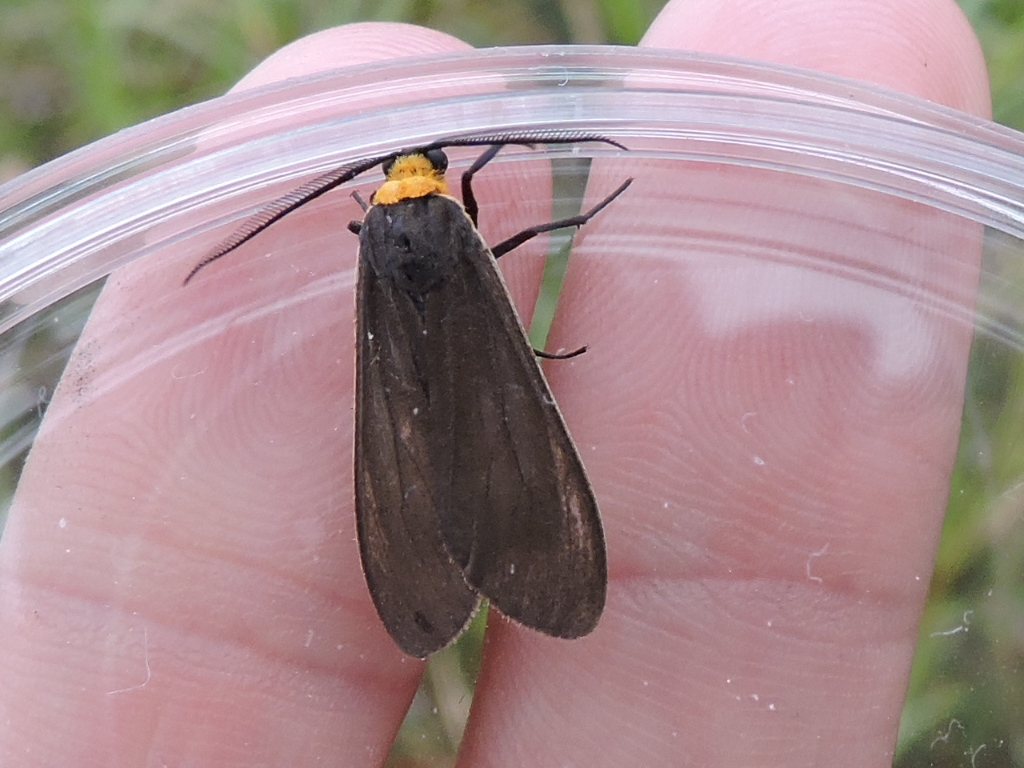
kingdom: Animalia
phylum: Arthropoda
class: Insecta
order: Lepidoptera
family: Erebidae
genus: Cisseps
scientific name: Cisseps fulvicollis
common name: Yellow-collared scape moth
